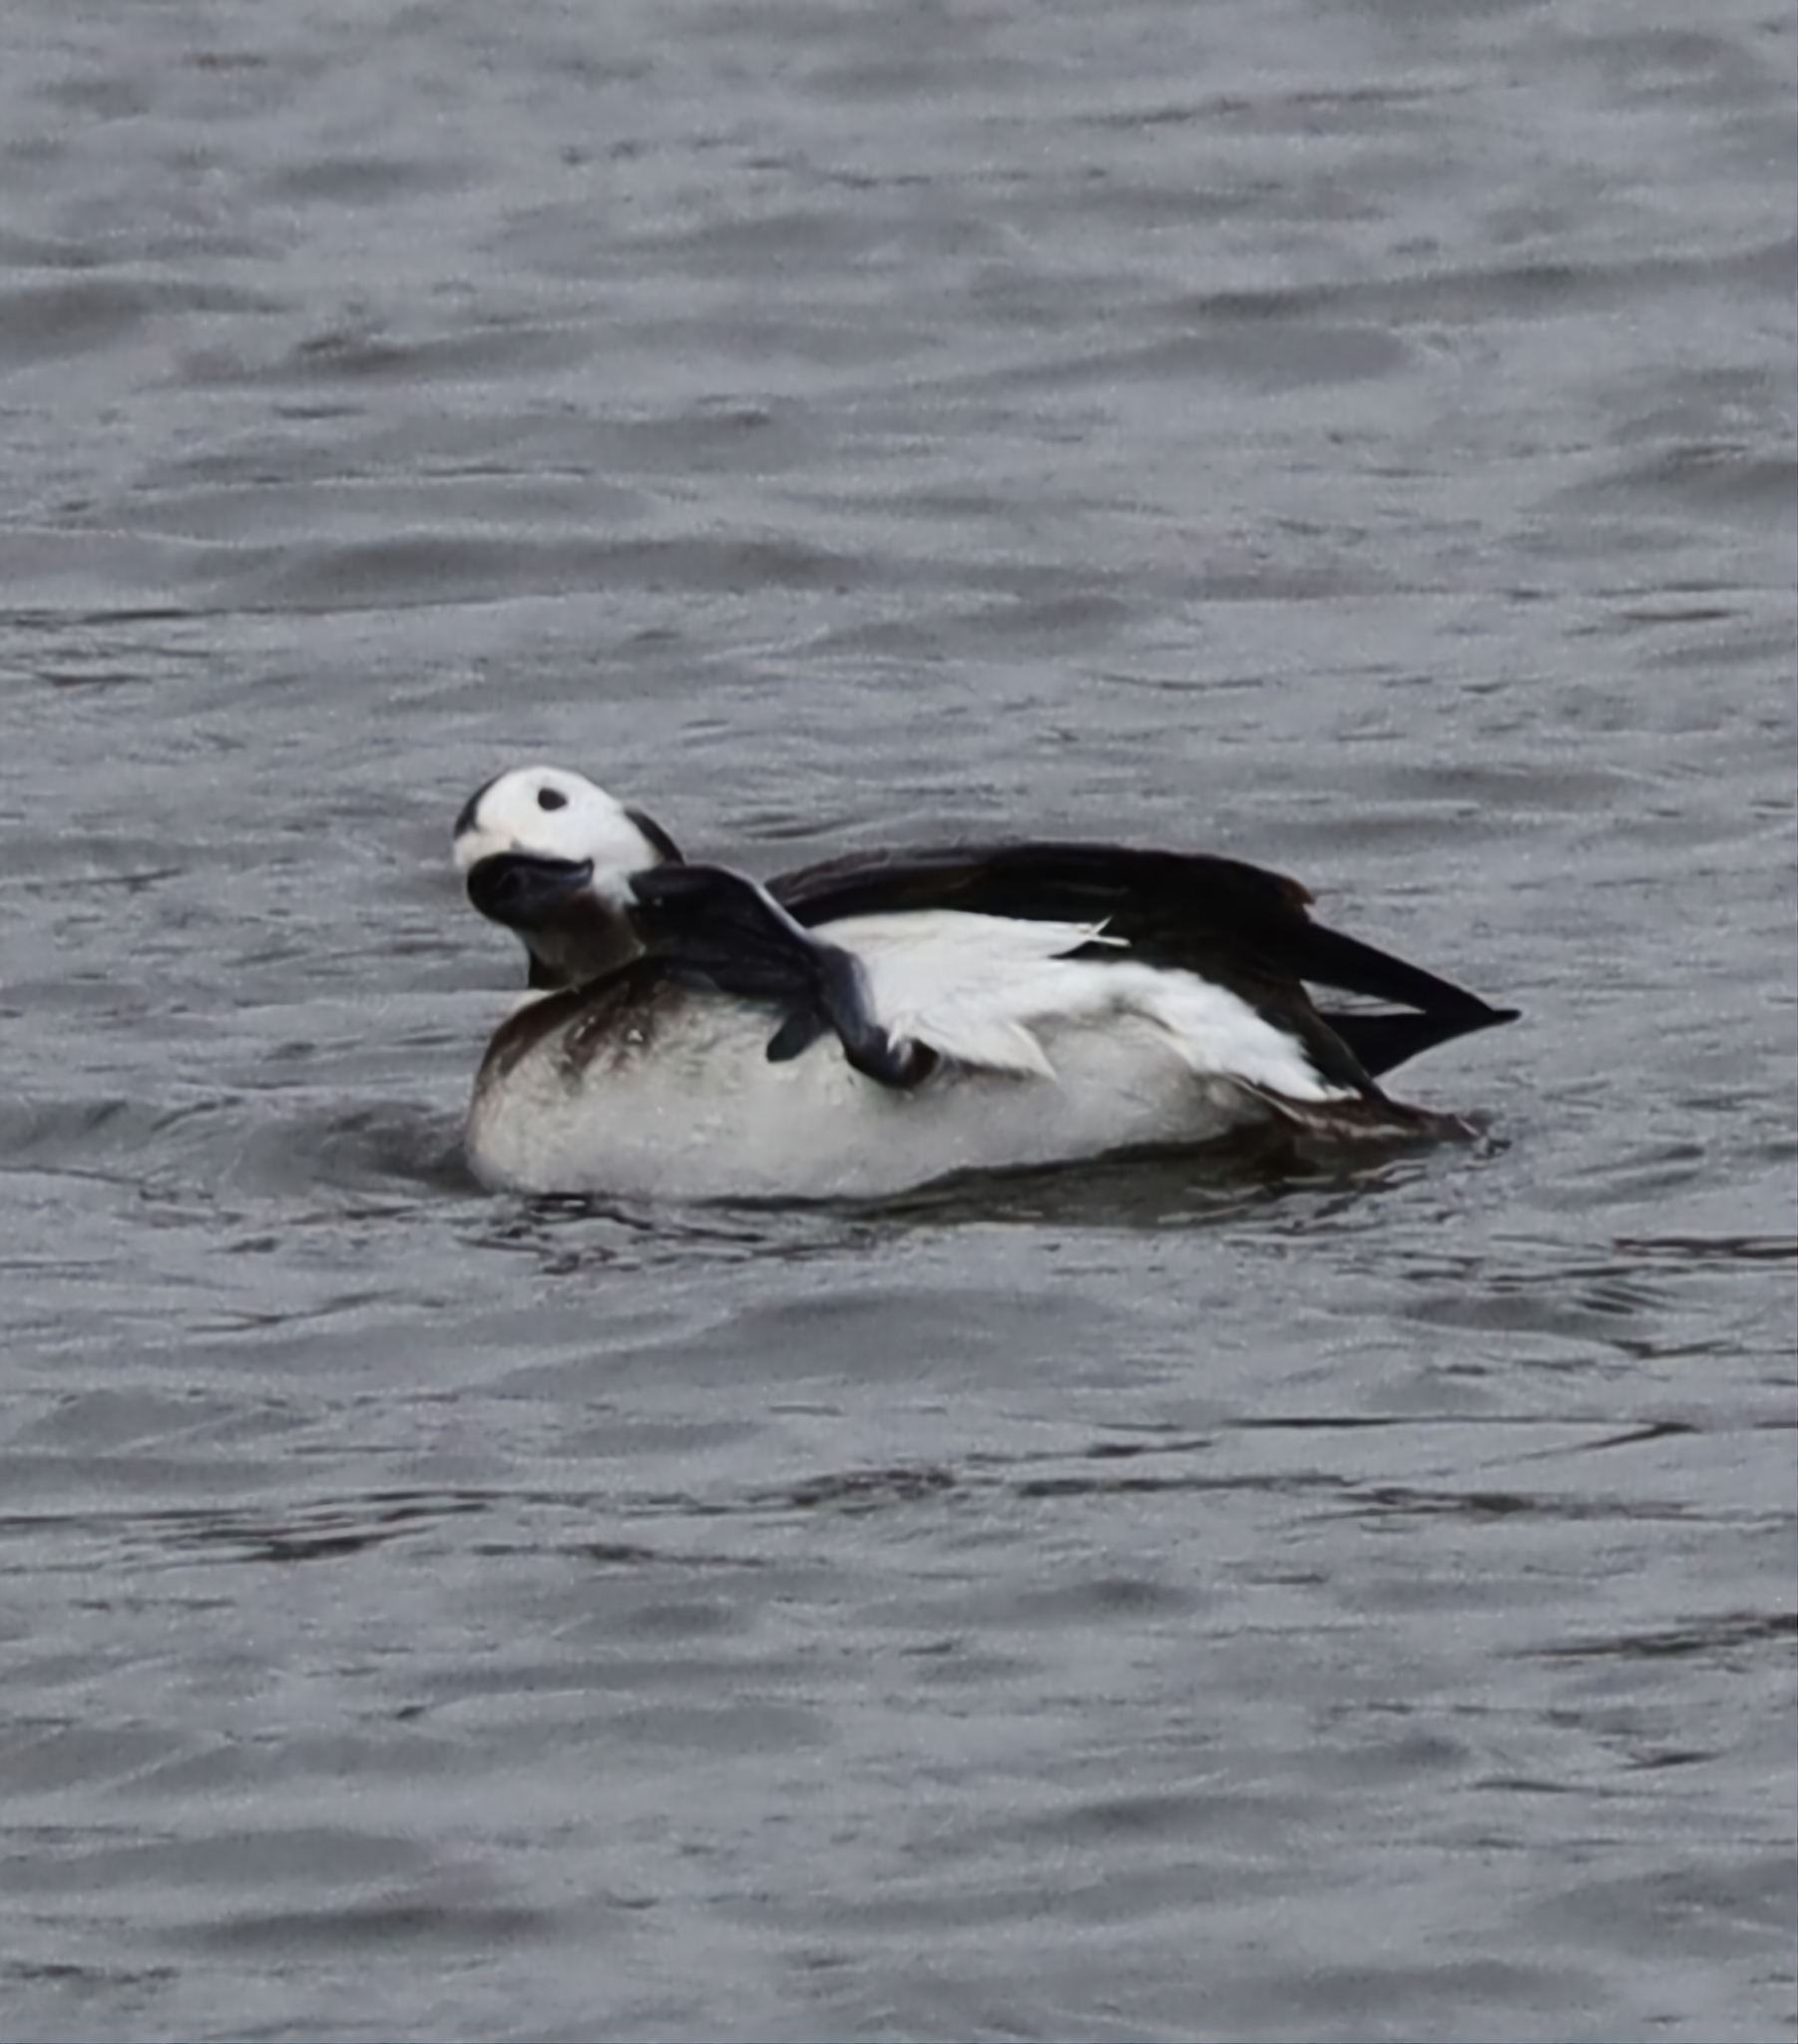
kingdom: Animalia
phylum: Chordata
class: Aves
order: Anseriformes
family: Anatidae
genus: Clangula
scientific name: Clangula hyemalis
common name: Long-tailed duck
